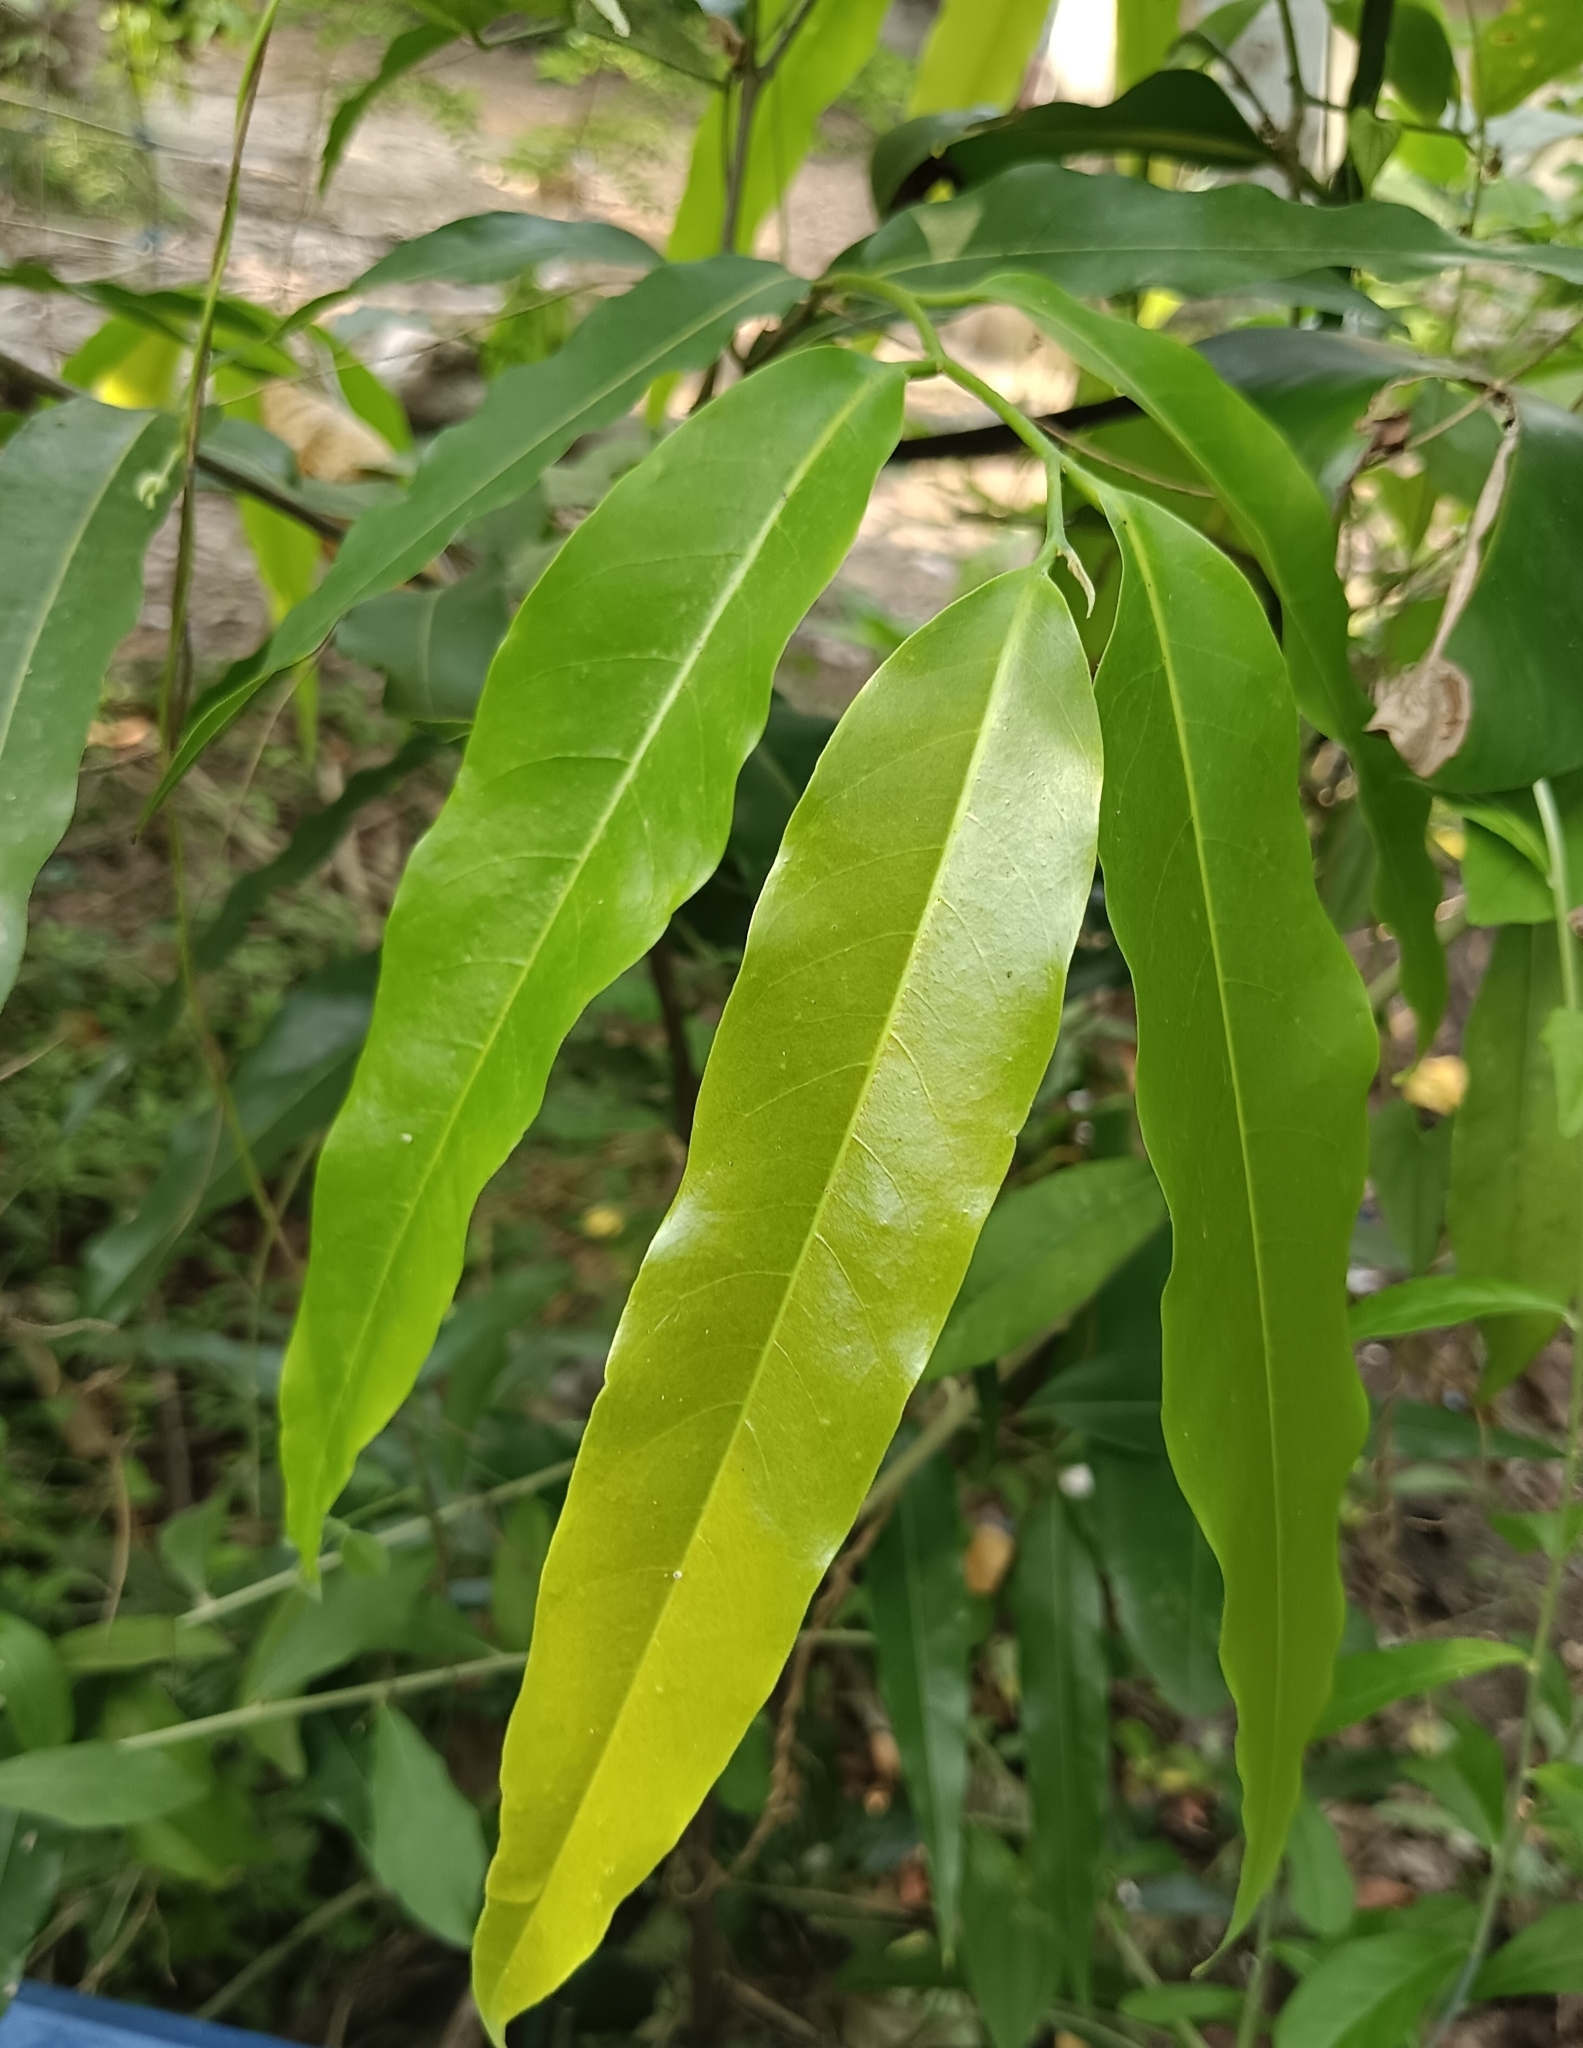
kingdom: Plantae
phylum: Tracheophyta
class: Magnoliopsida
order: Magnoliales
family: Annonaceae
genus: Polyalthia
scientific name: Polyalthia longifolia
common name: Cemetery-tree
